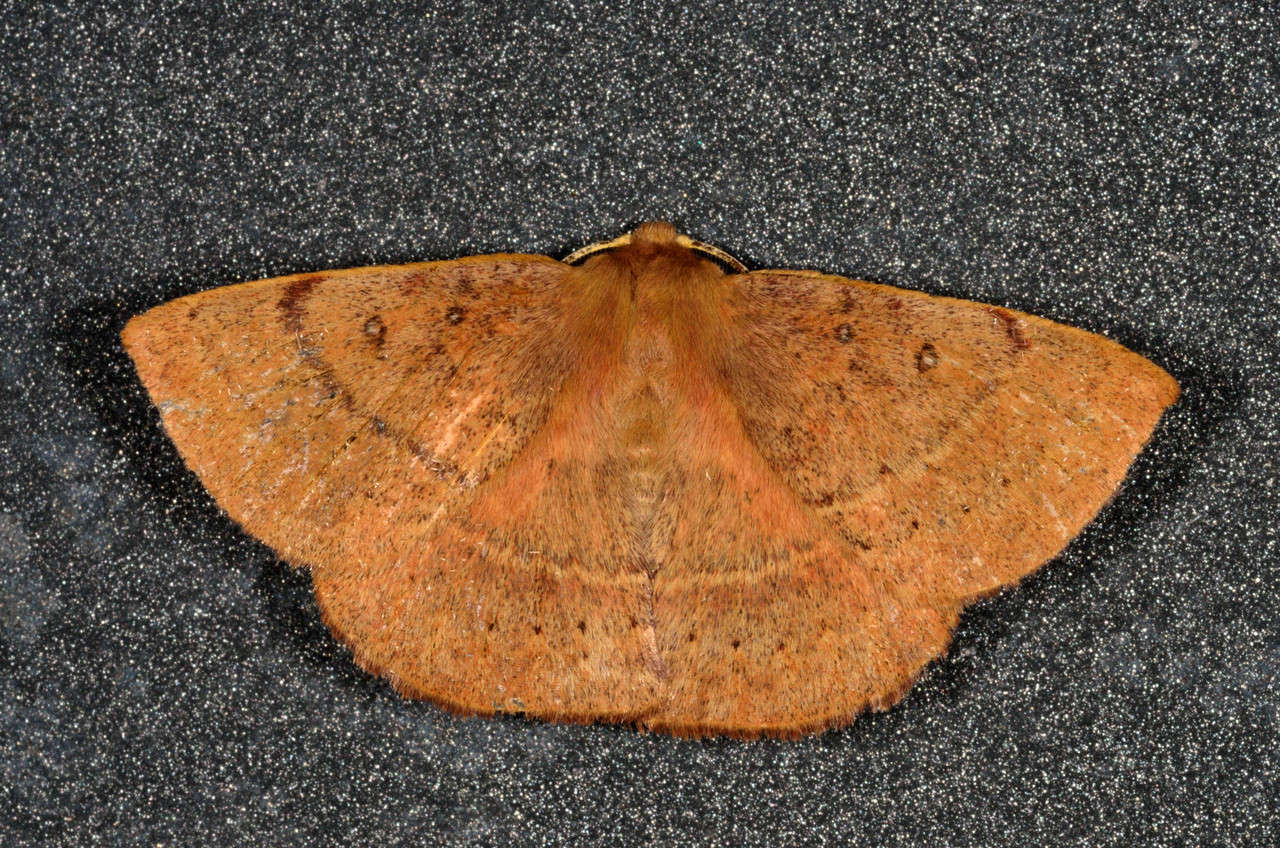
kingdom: Animalia
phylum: Arthropoda
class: Insecta
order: Lepidoptera
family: Anthelidae
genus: Anthela
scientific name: Anthela repleta
